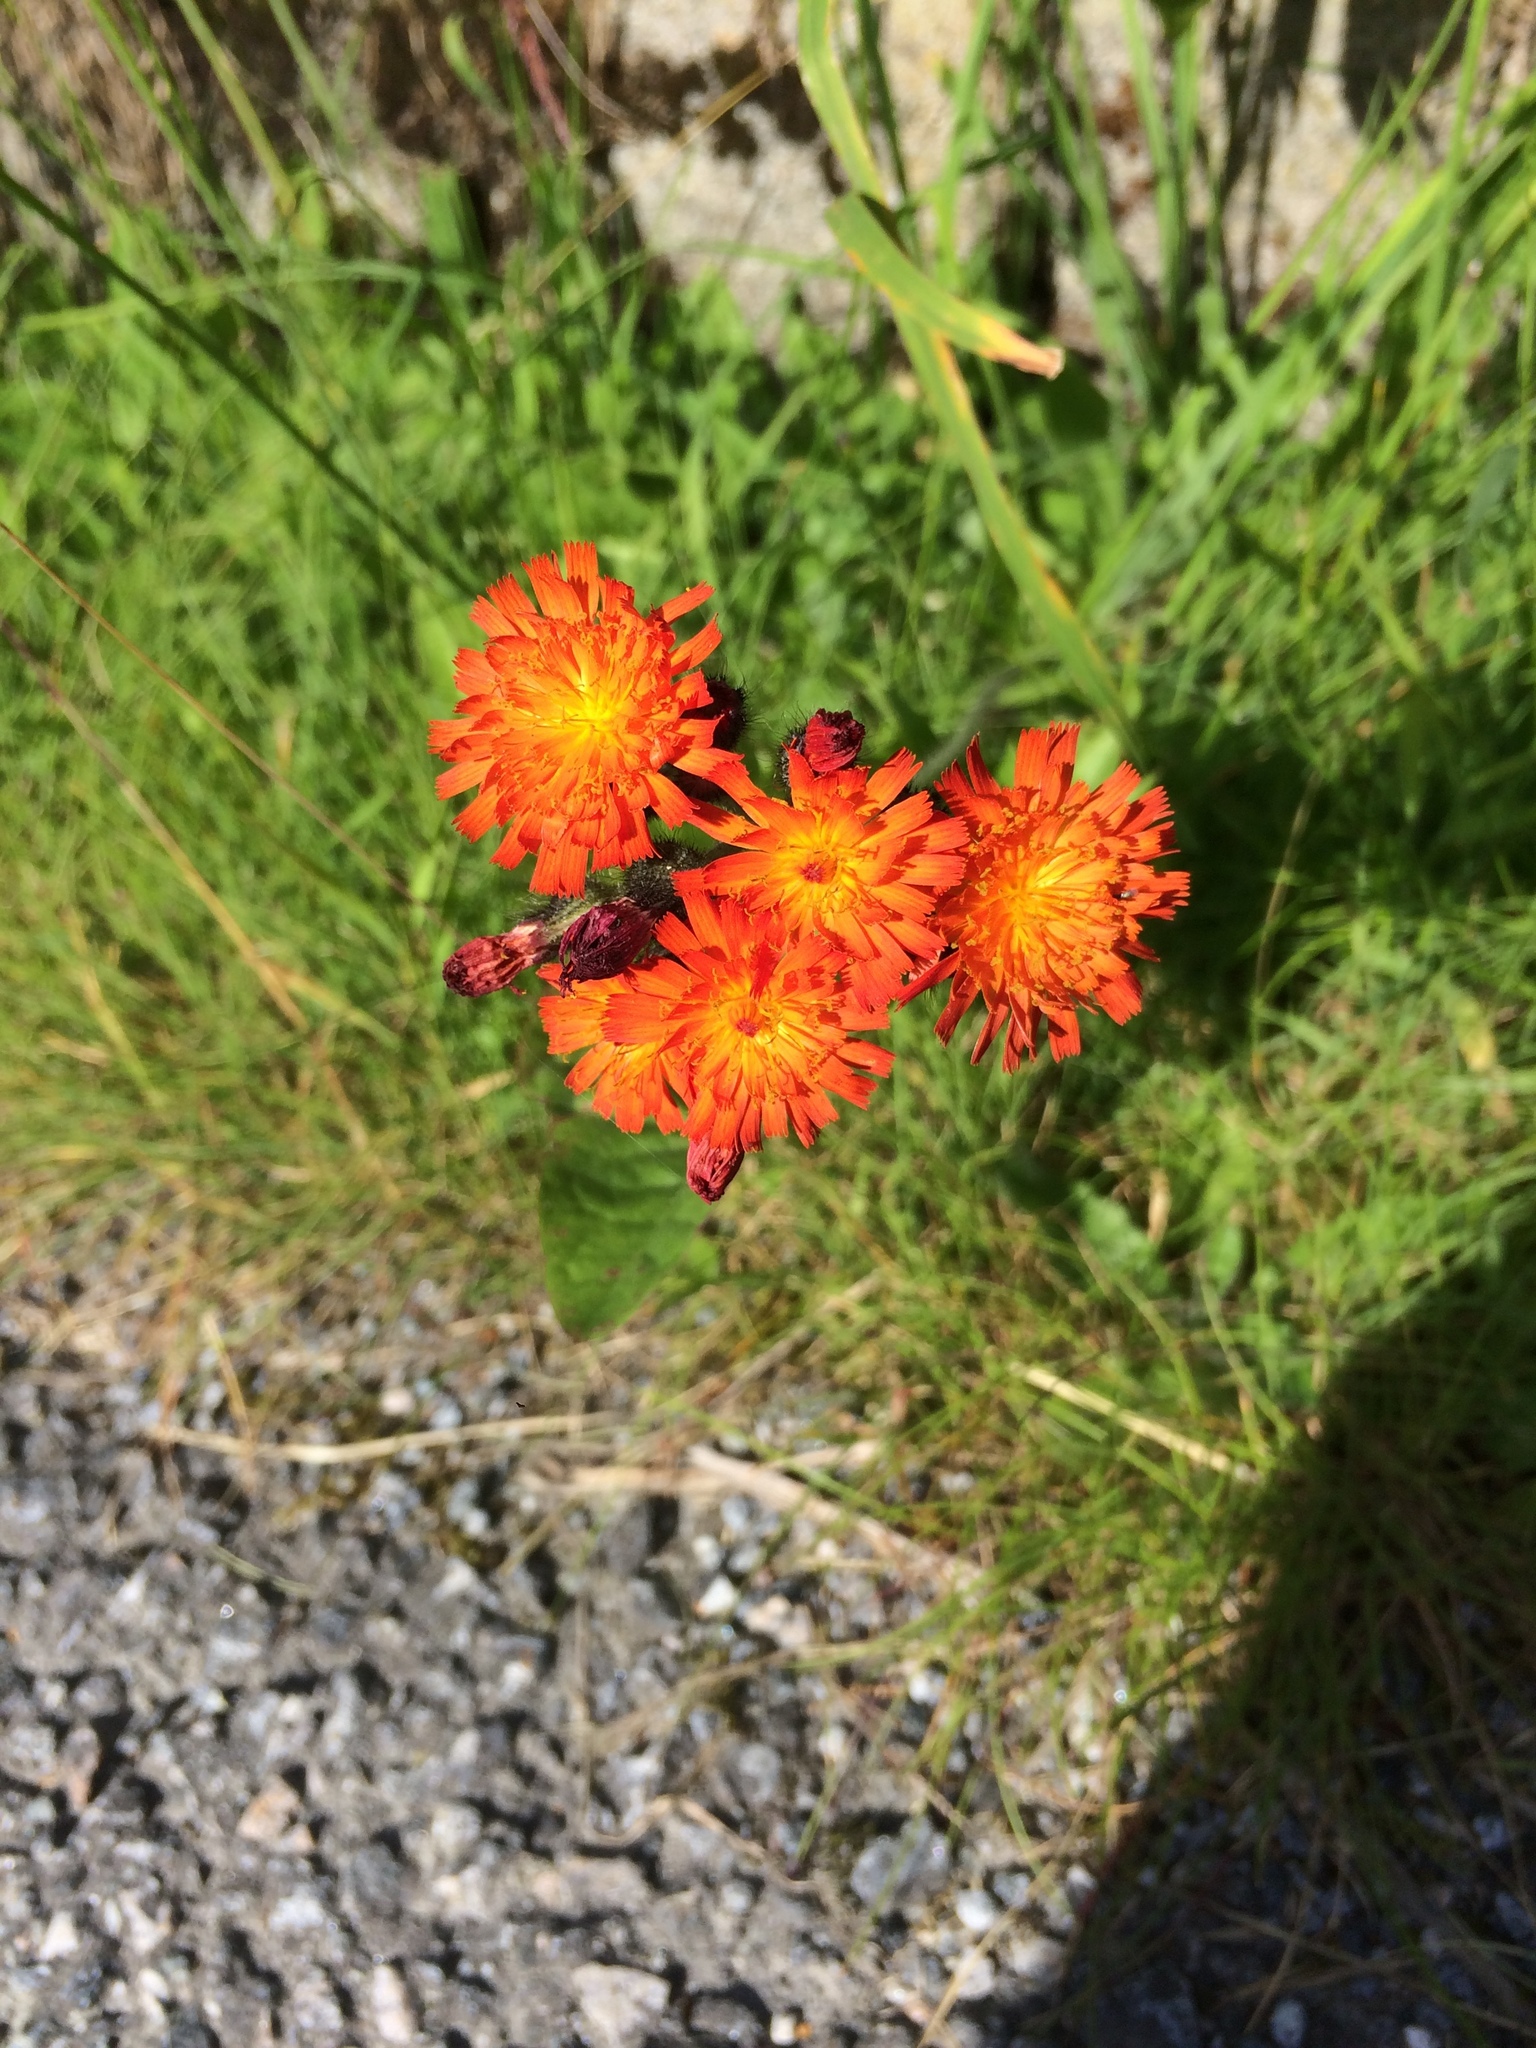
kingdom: Plantae
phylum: Tracheophyta
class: Magnoliopsida
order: Asterales
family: Asteraceae
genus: Pilosella
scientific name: Pilosella aurantiaca
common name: Fox-and-cubs
